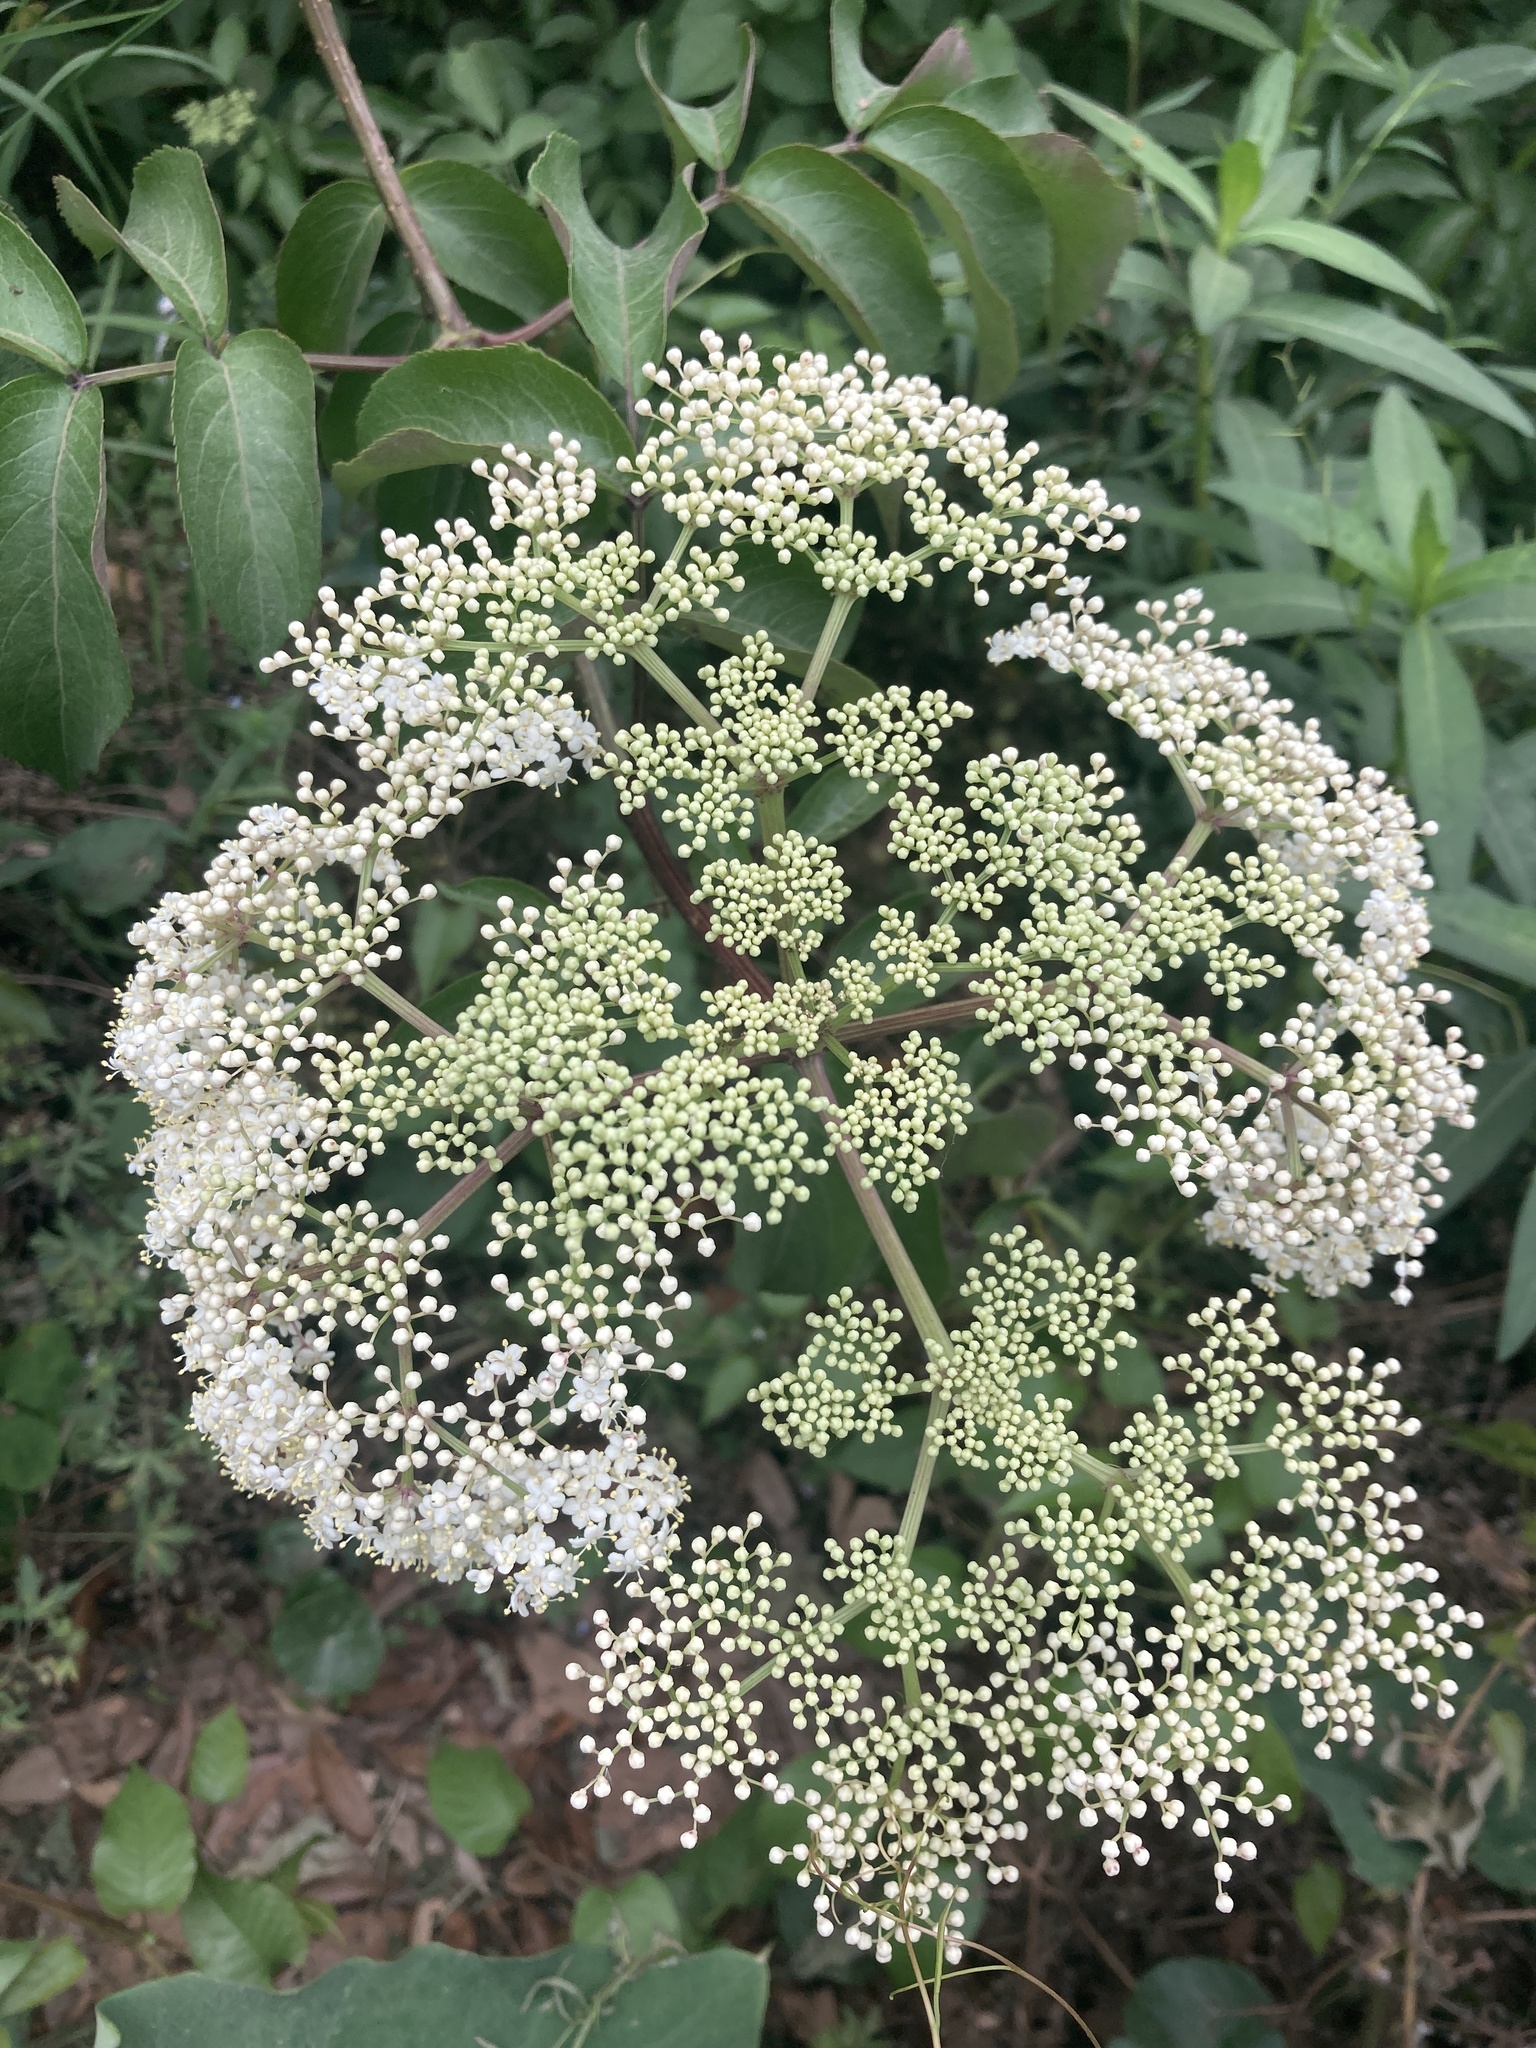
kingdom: Plantae
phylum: Tracheophyta
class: Magnoliopsida
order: Dipsacales
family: Viburnaceae
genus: Sambucus
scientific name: Sambucus canadensis
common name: American elder
